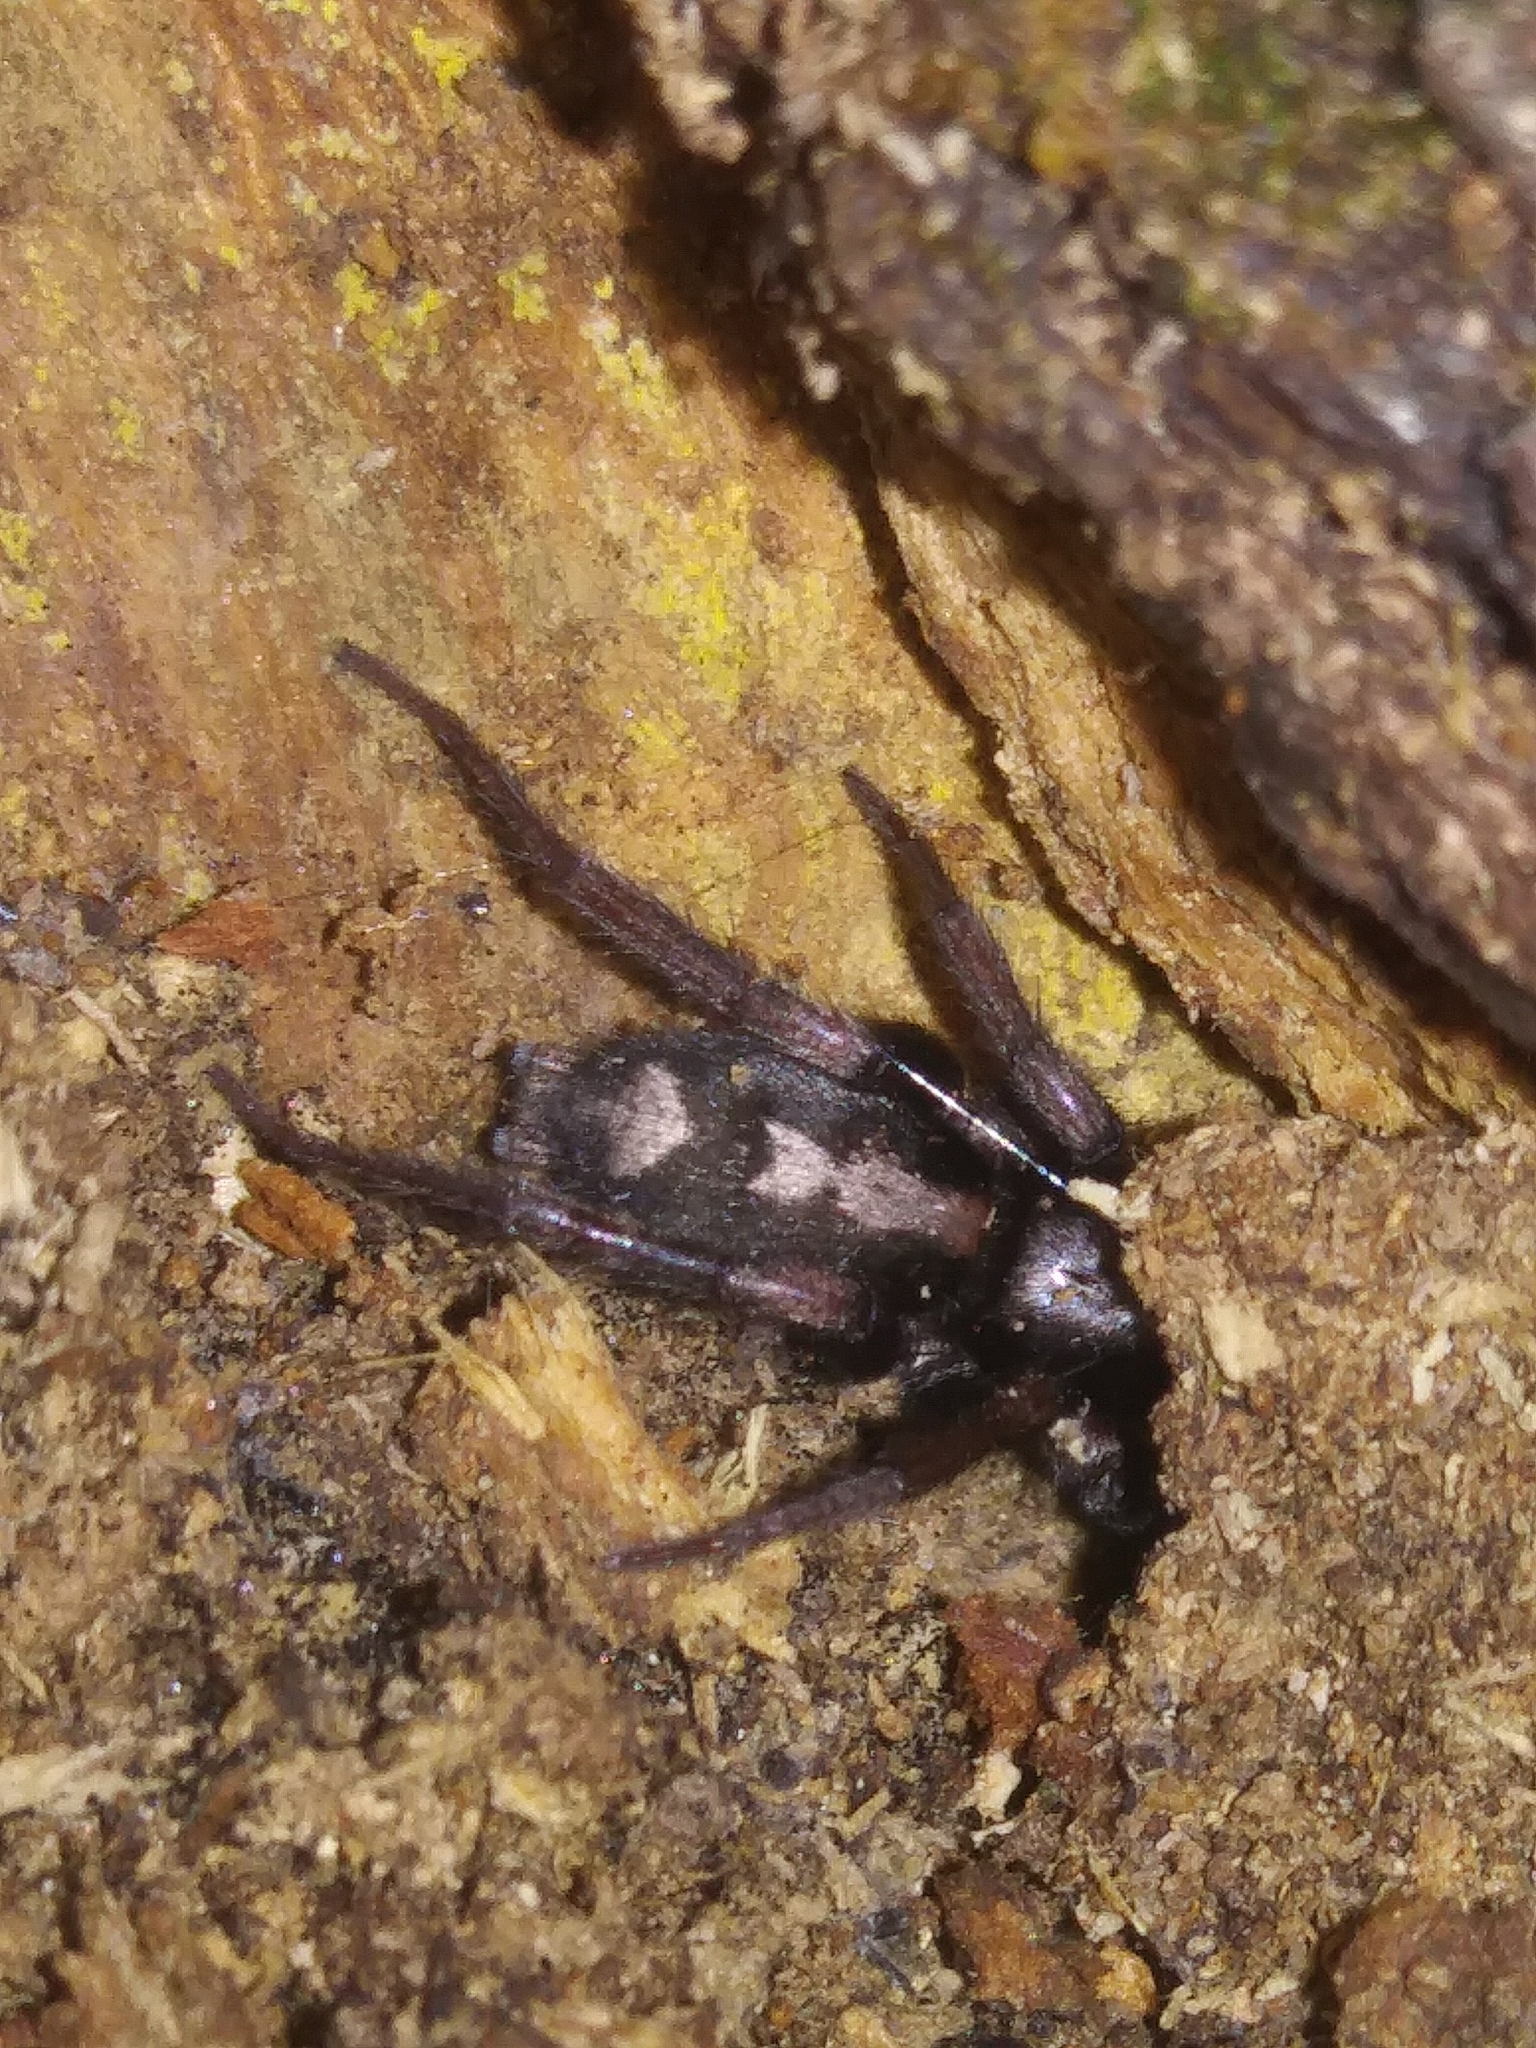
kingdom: Animalia
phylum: Arthropoda
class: Arachnida
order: Araneae
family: Gnaphosidae
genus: Herpyllus
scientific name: Herpyllus ecclesiasticus
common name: Eastern parson spider
